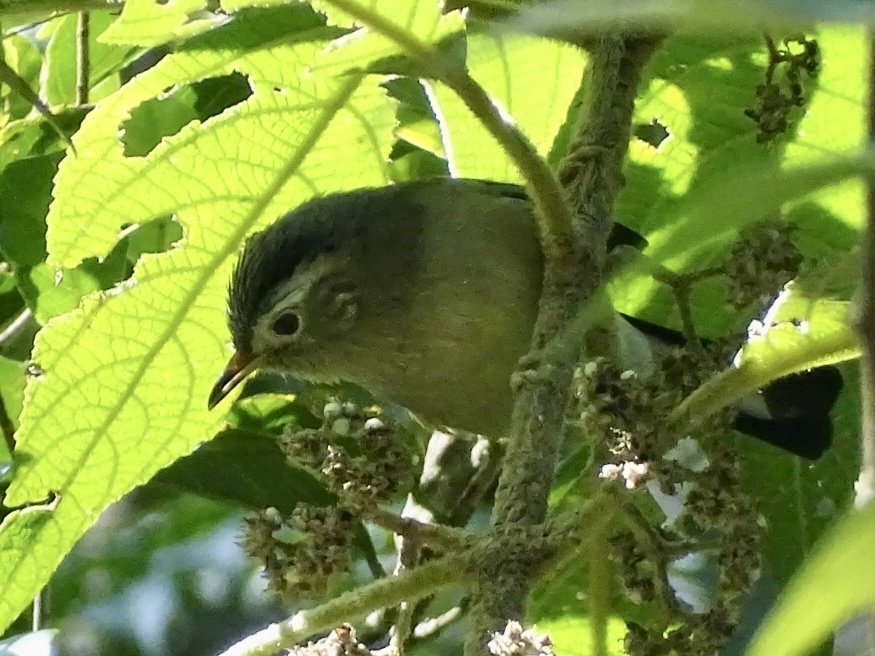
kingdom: Animalia
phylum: Chordata
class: Aves
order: Passeriformes
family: Leiothrichidae
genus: Minla
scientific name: Minla cyanouroptera
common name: Blue-winged minla
